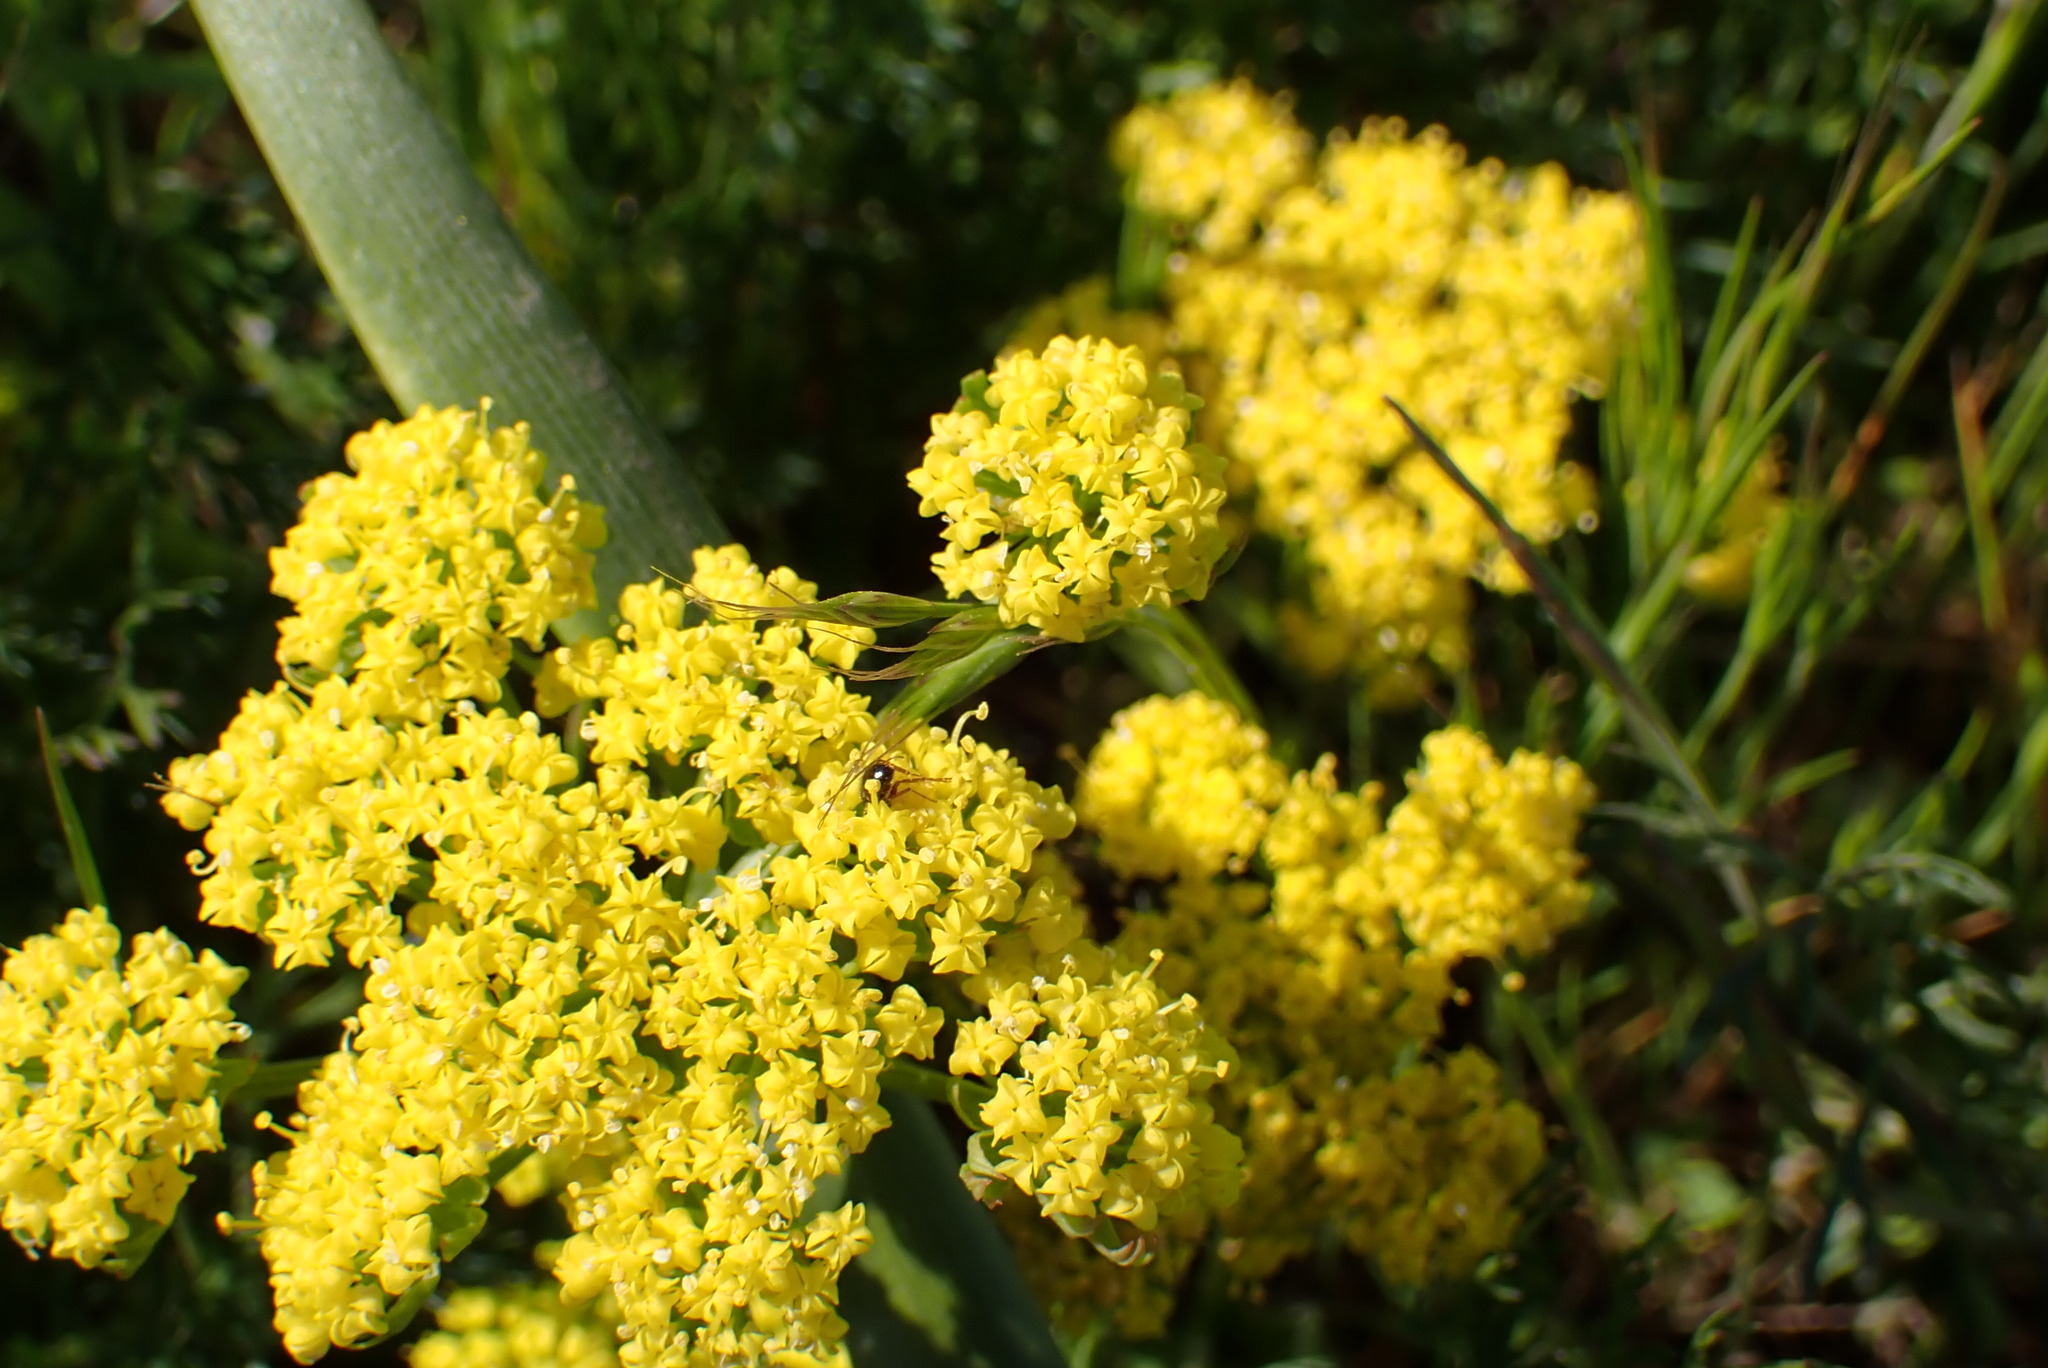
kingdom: Plantae
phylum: Tracheophyta
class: Magnoliopsida
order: Apiales
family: Apiaceae
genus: Lomatium
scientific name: Lomatium utriculatum
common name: Fine-leaf desert-parsley
